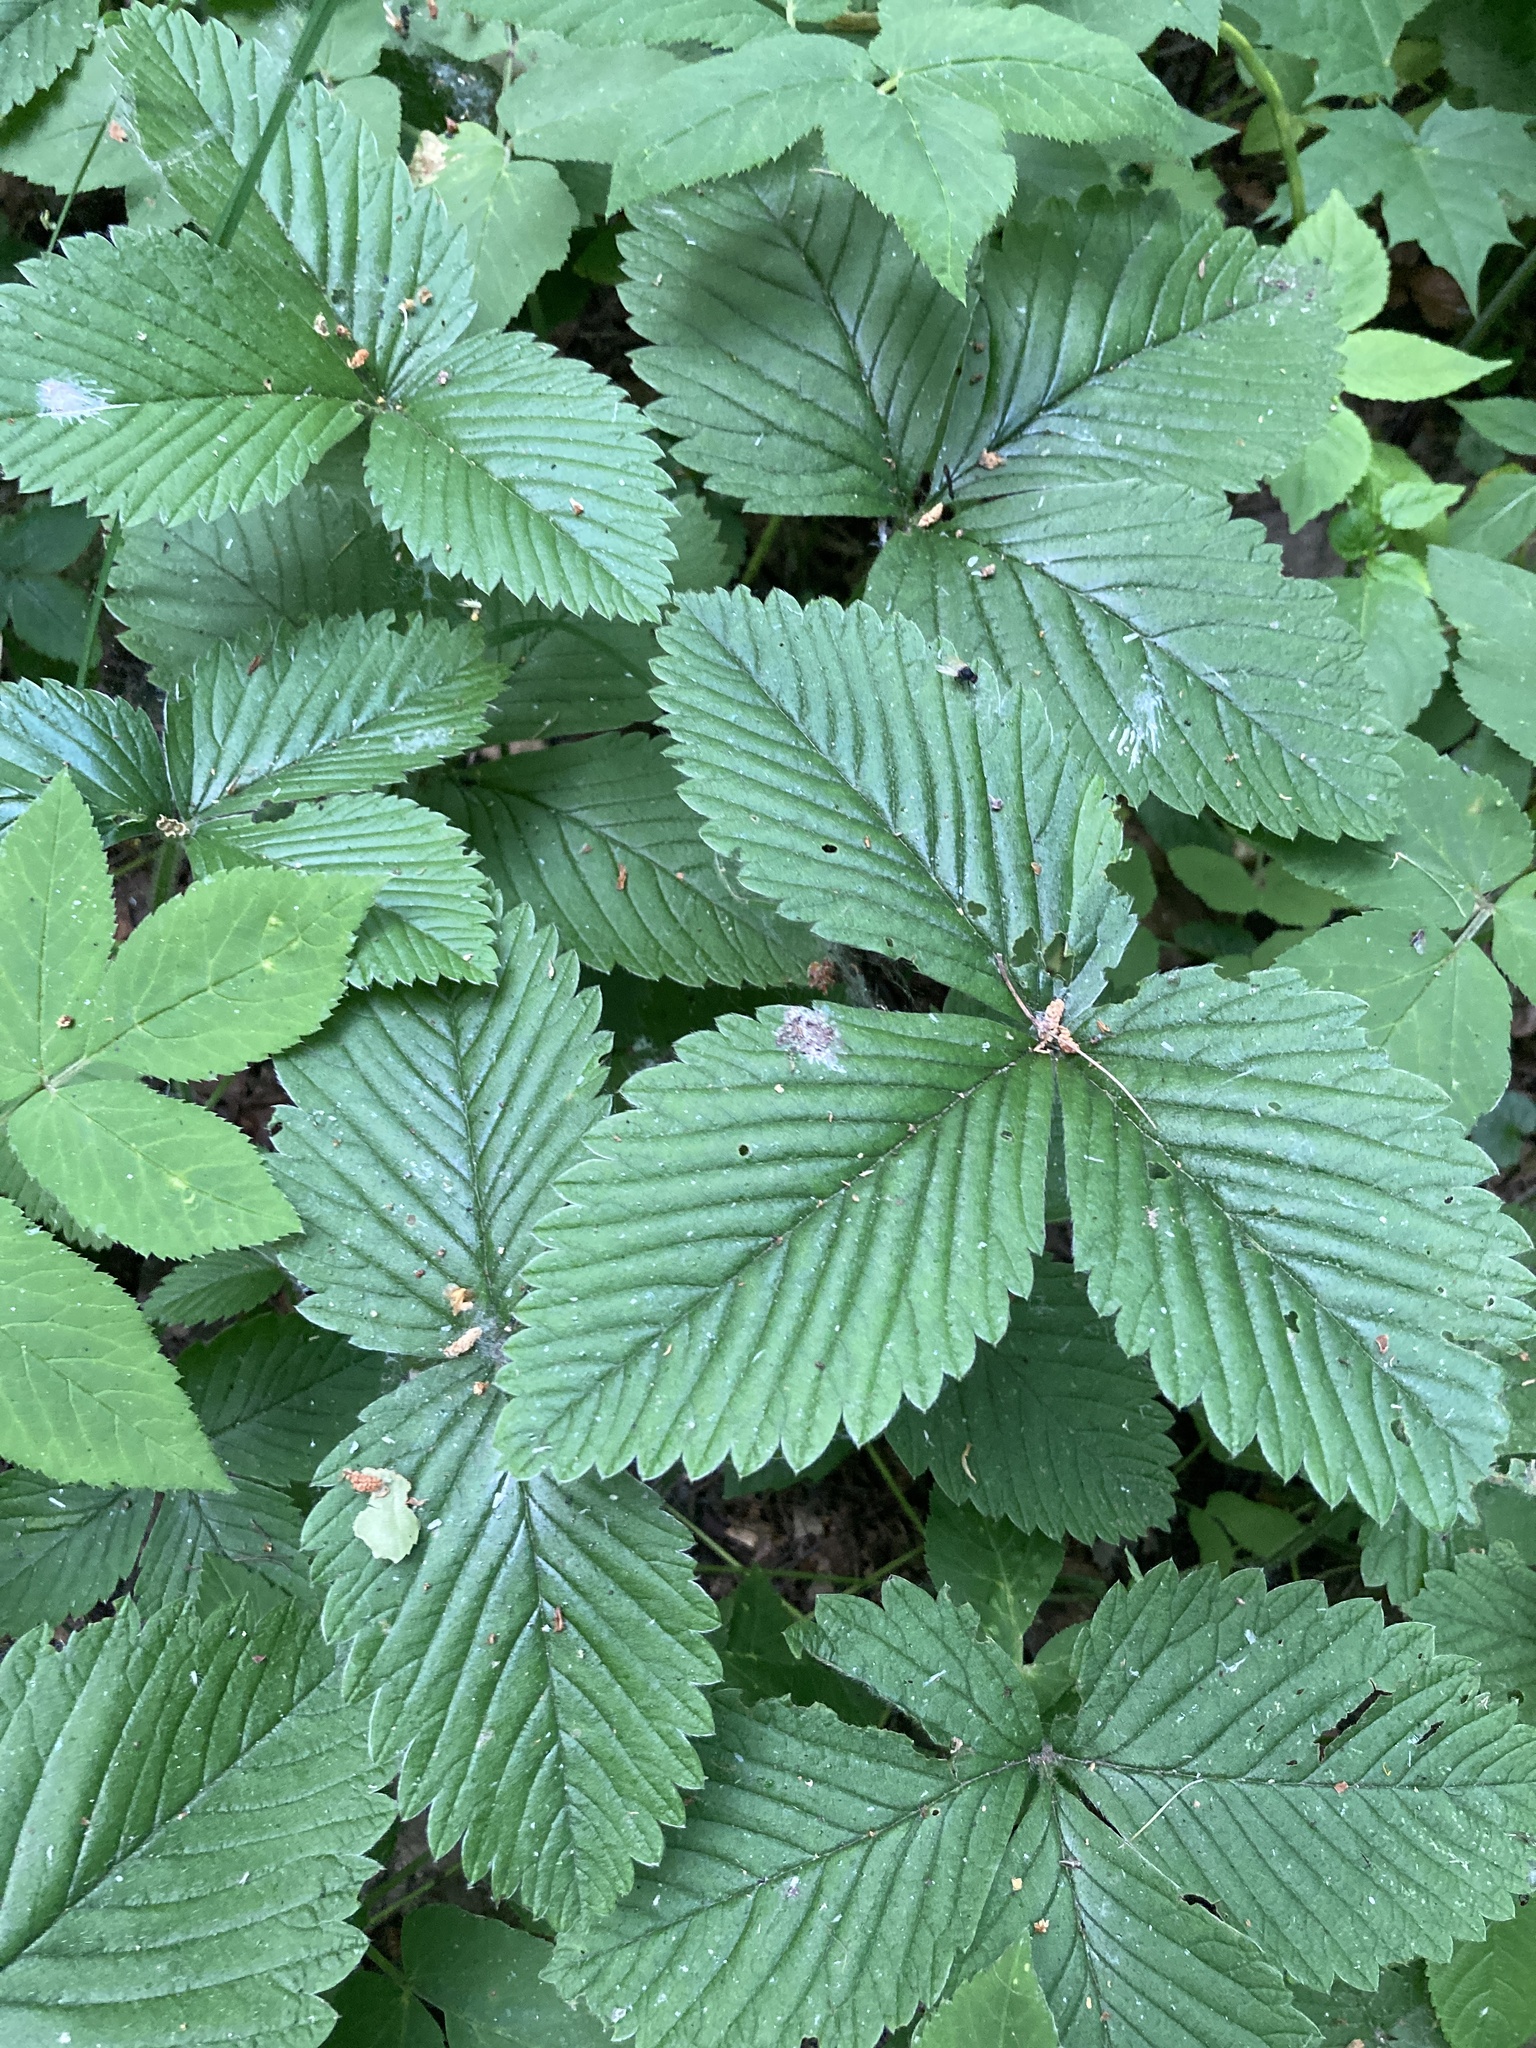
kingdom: Plantae
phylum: Tracheophyta
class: Magnoliopsida
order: Rosales
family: Rosaceae
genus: Fragaria
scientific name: Fragaria moschata
